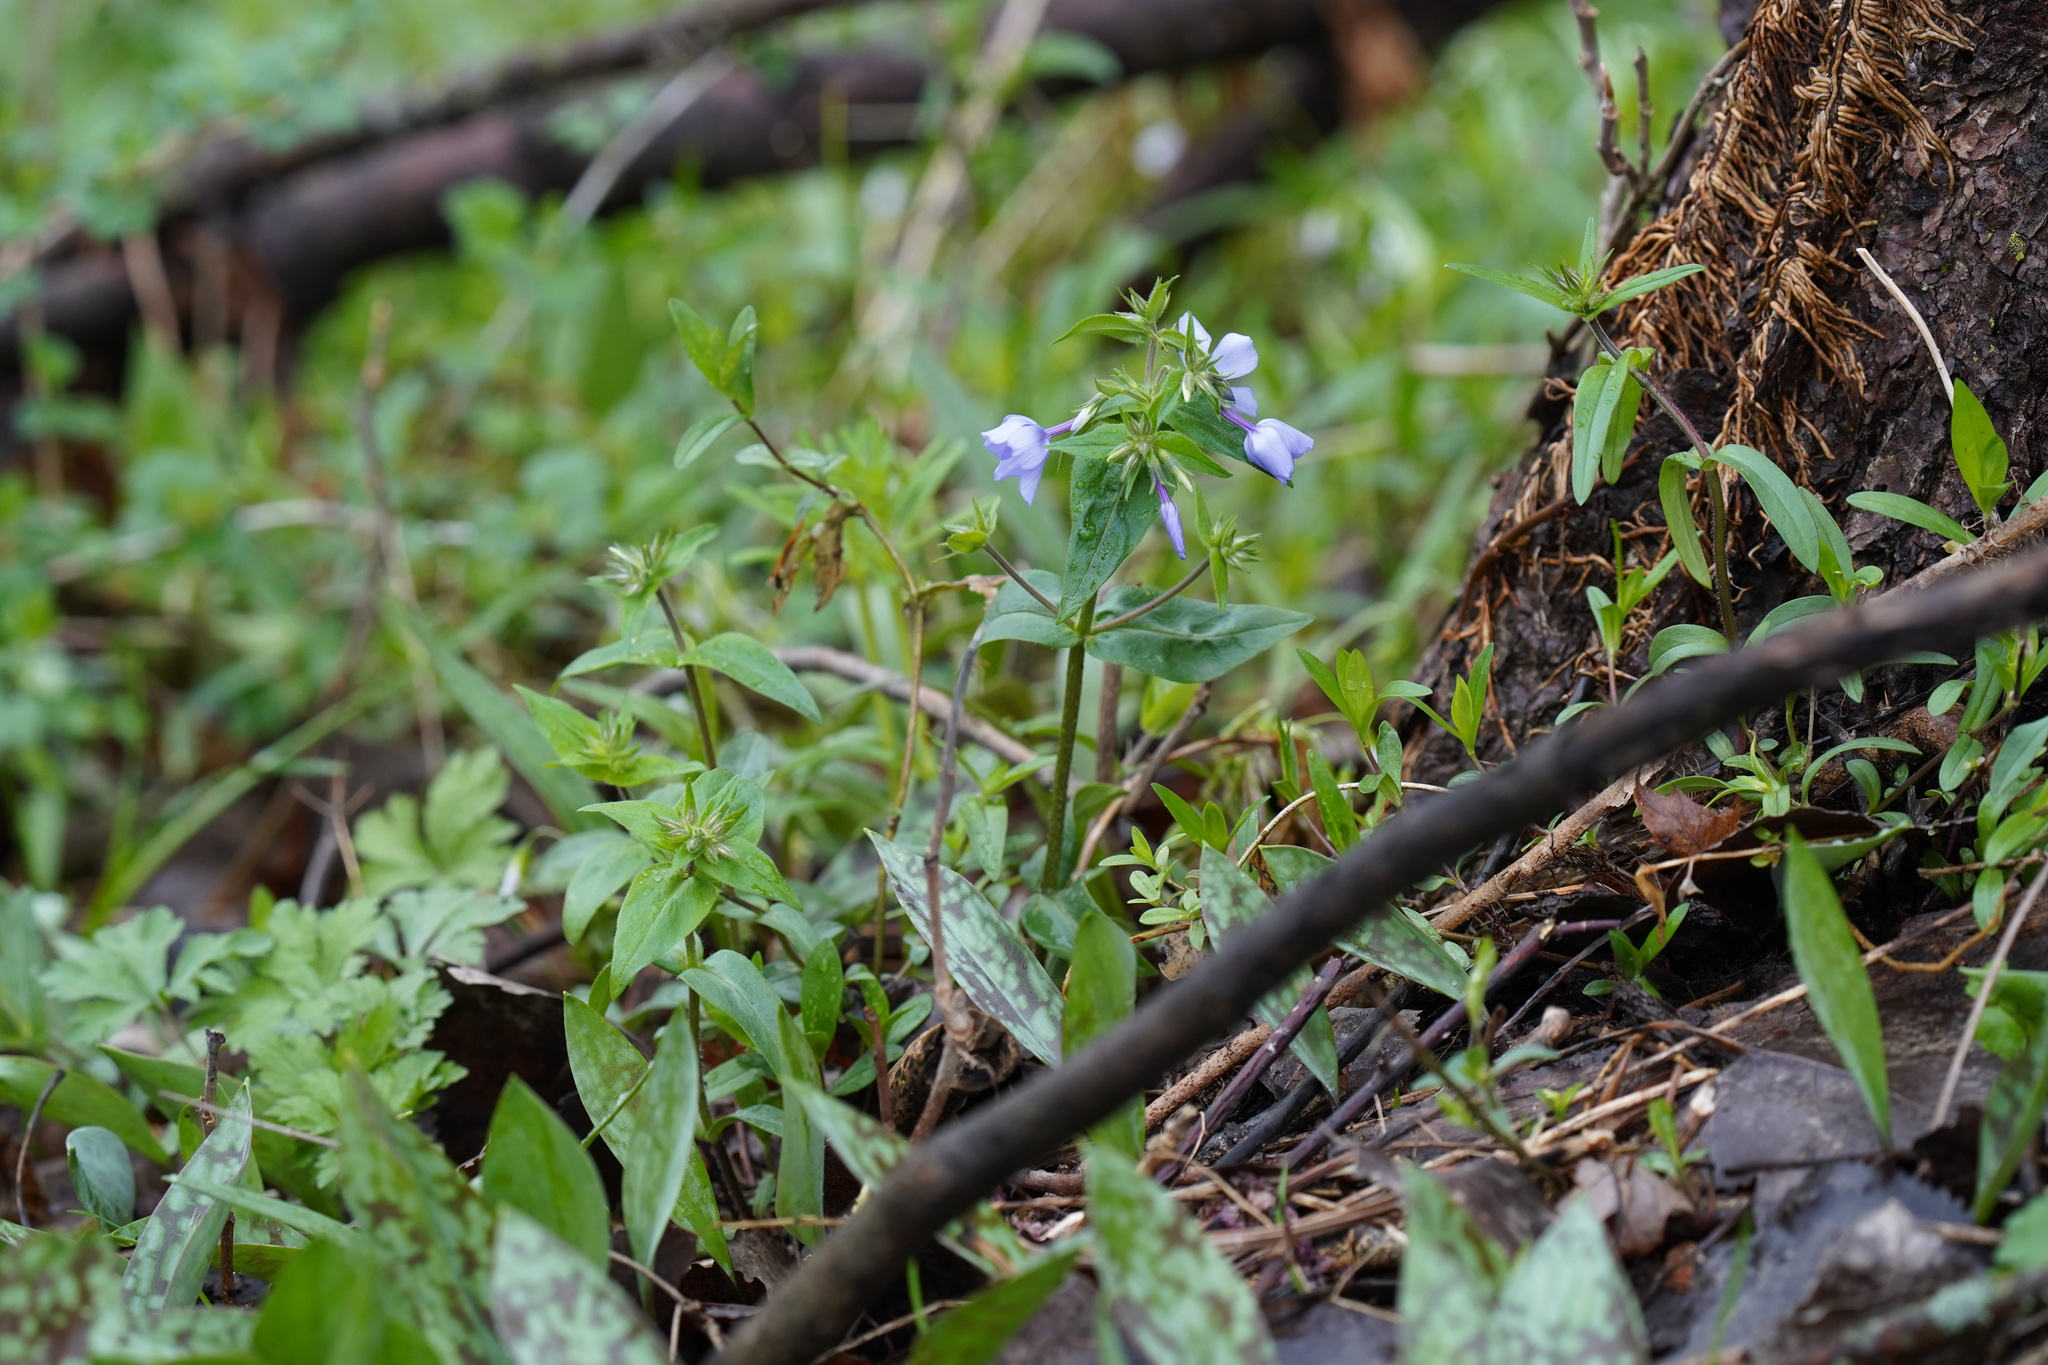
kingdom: Plantae
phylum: Tracheophyta
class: Magnoliopsida
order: Ericales
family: Polemoniaceae
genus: Phlox
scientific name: Phlox divaricata
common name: Blue phlox
